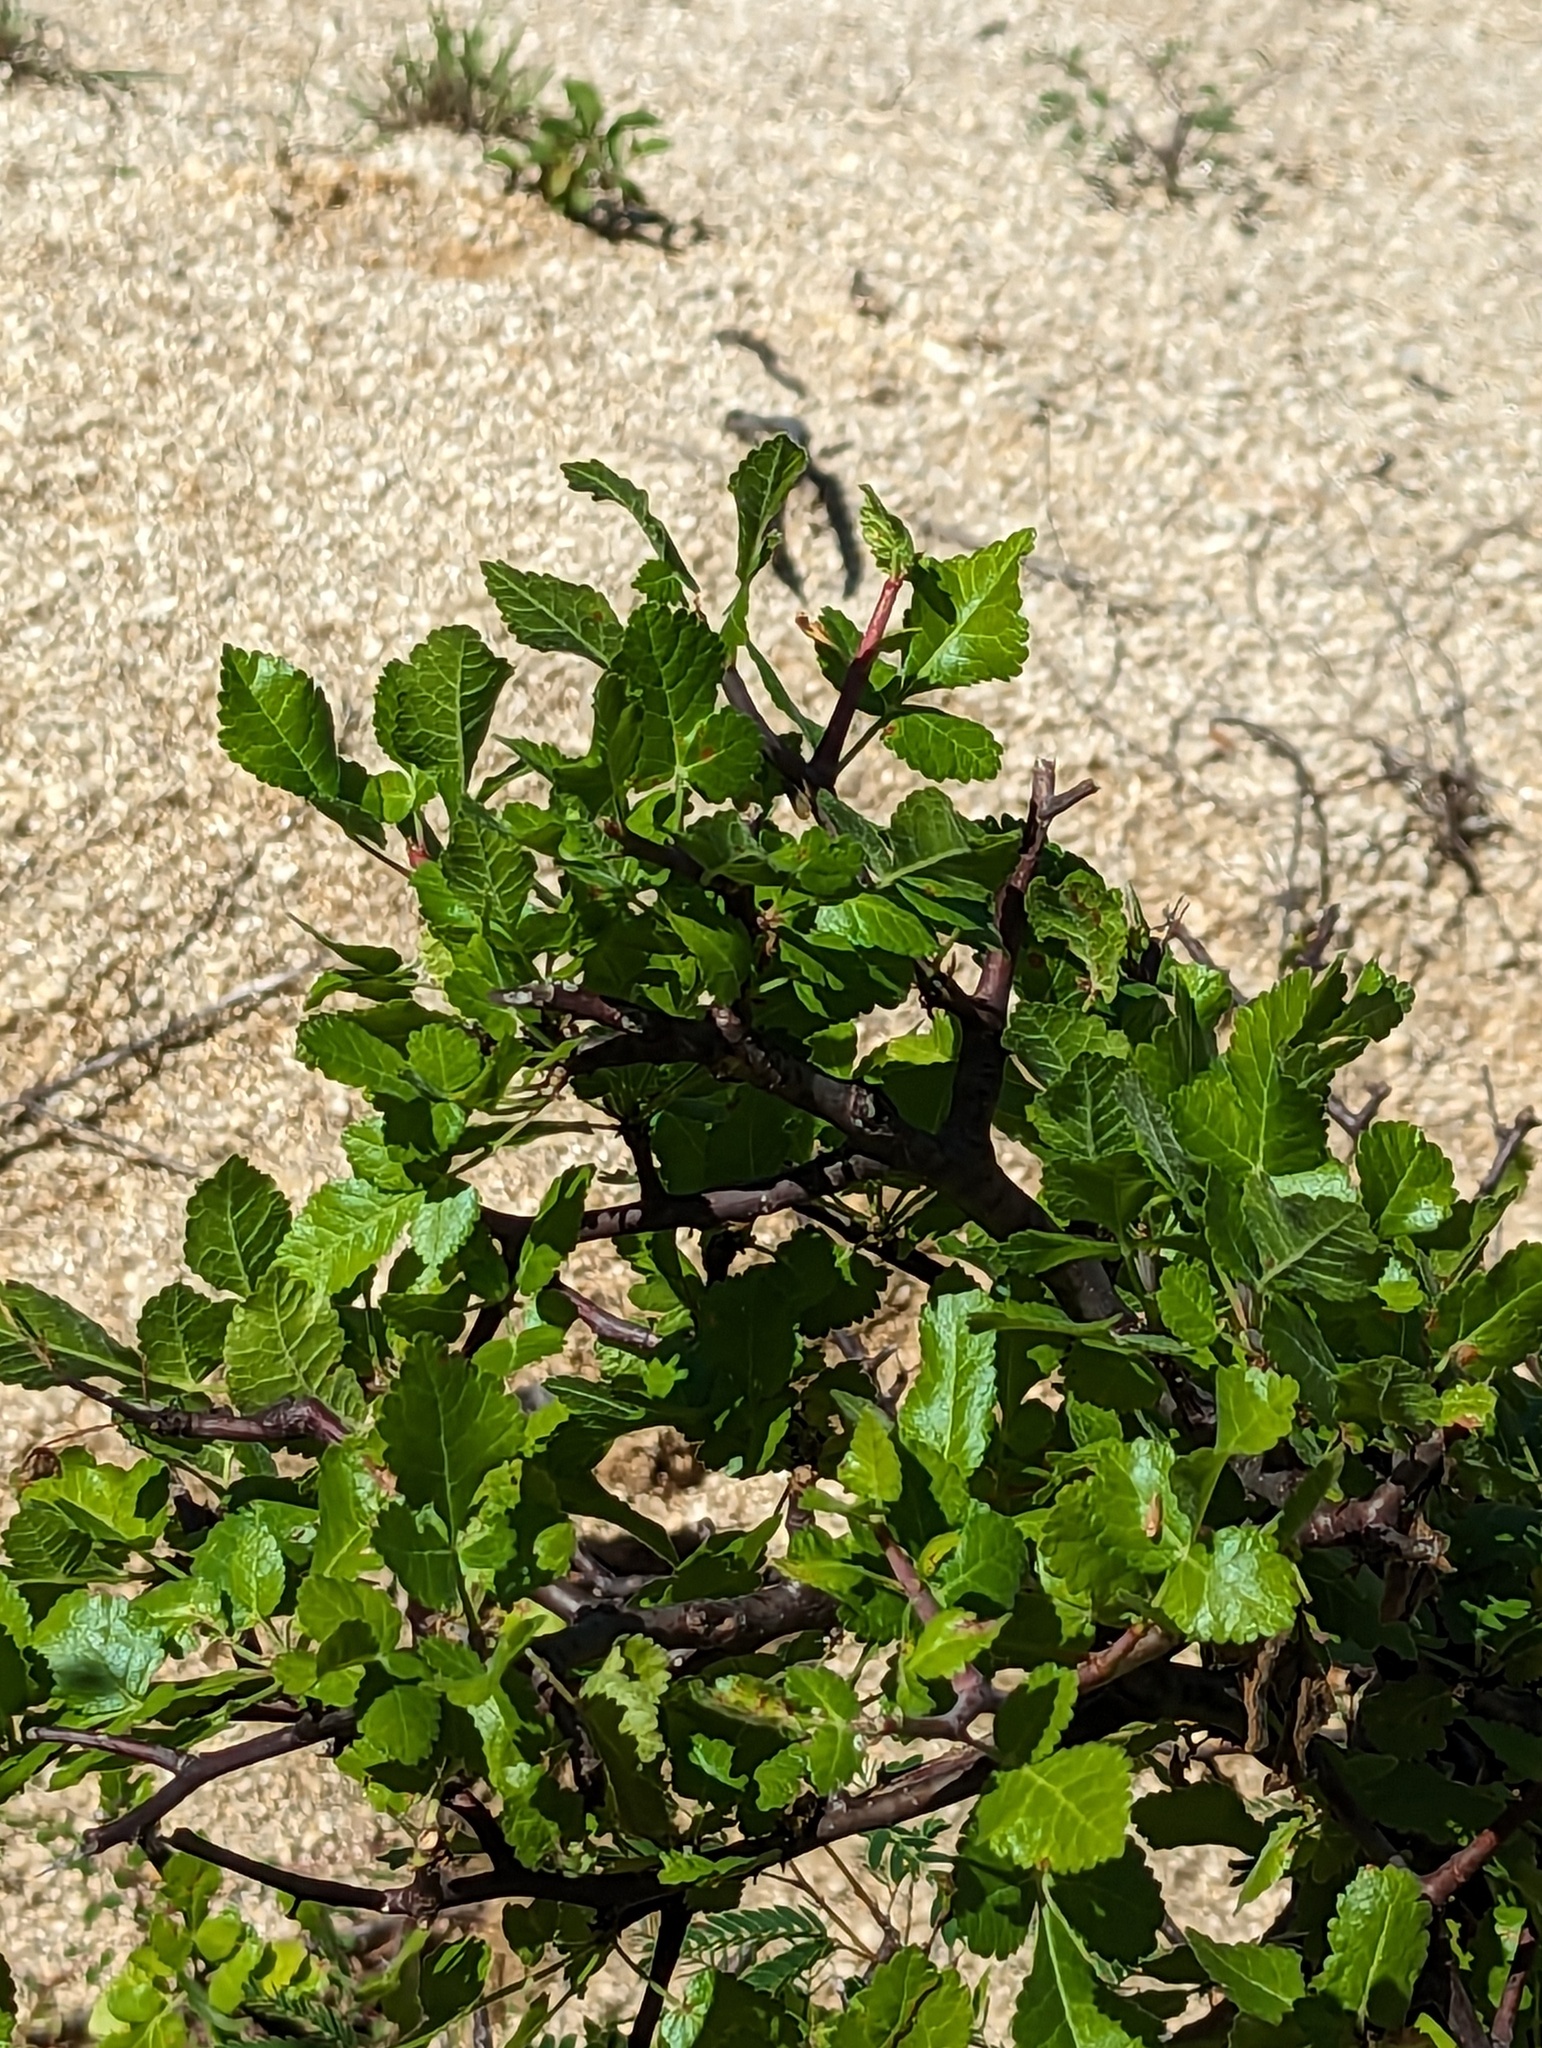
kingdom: Plantae
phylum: Tracheophyta
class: Magnoliopsida
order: Sapindales
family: Burseraceae
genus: Bursera
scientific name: Bursera epinnata
